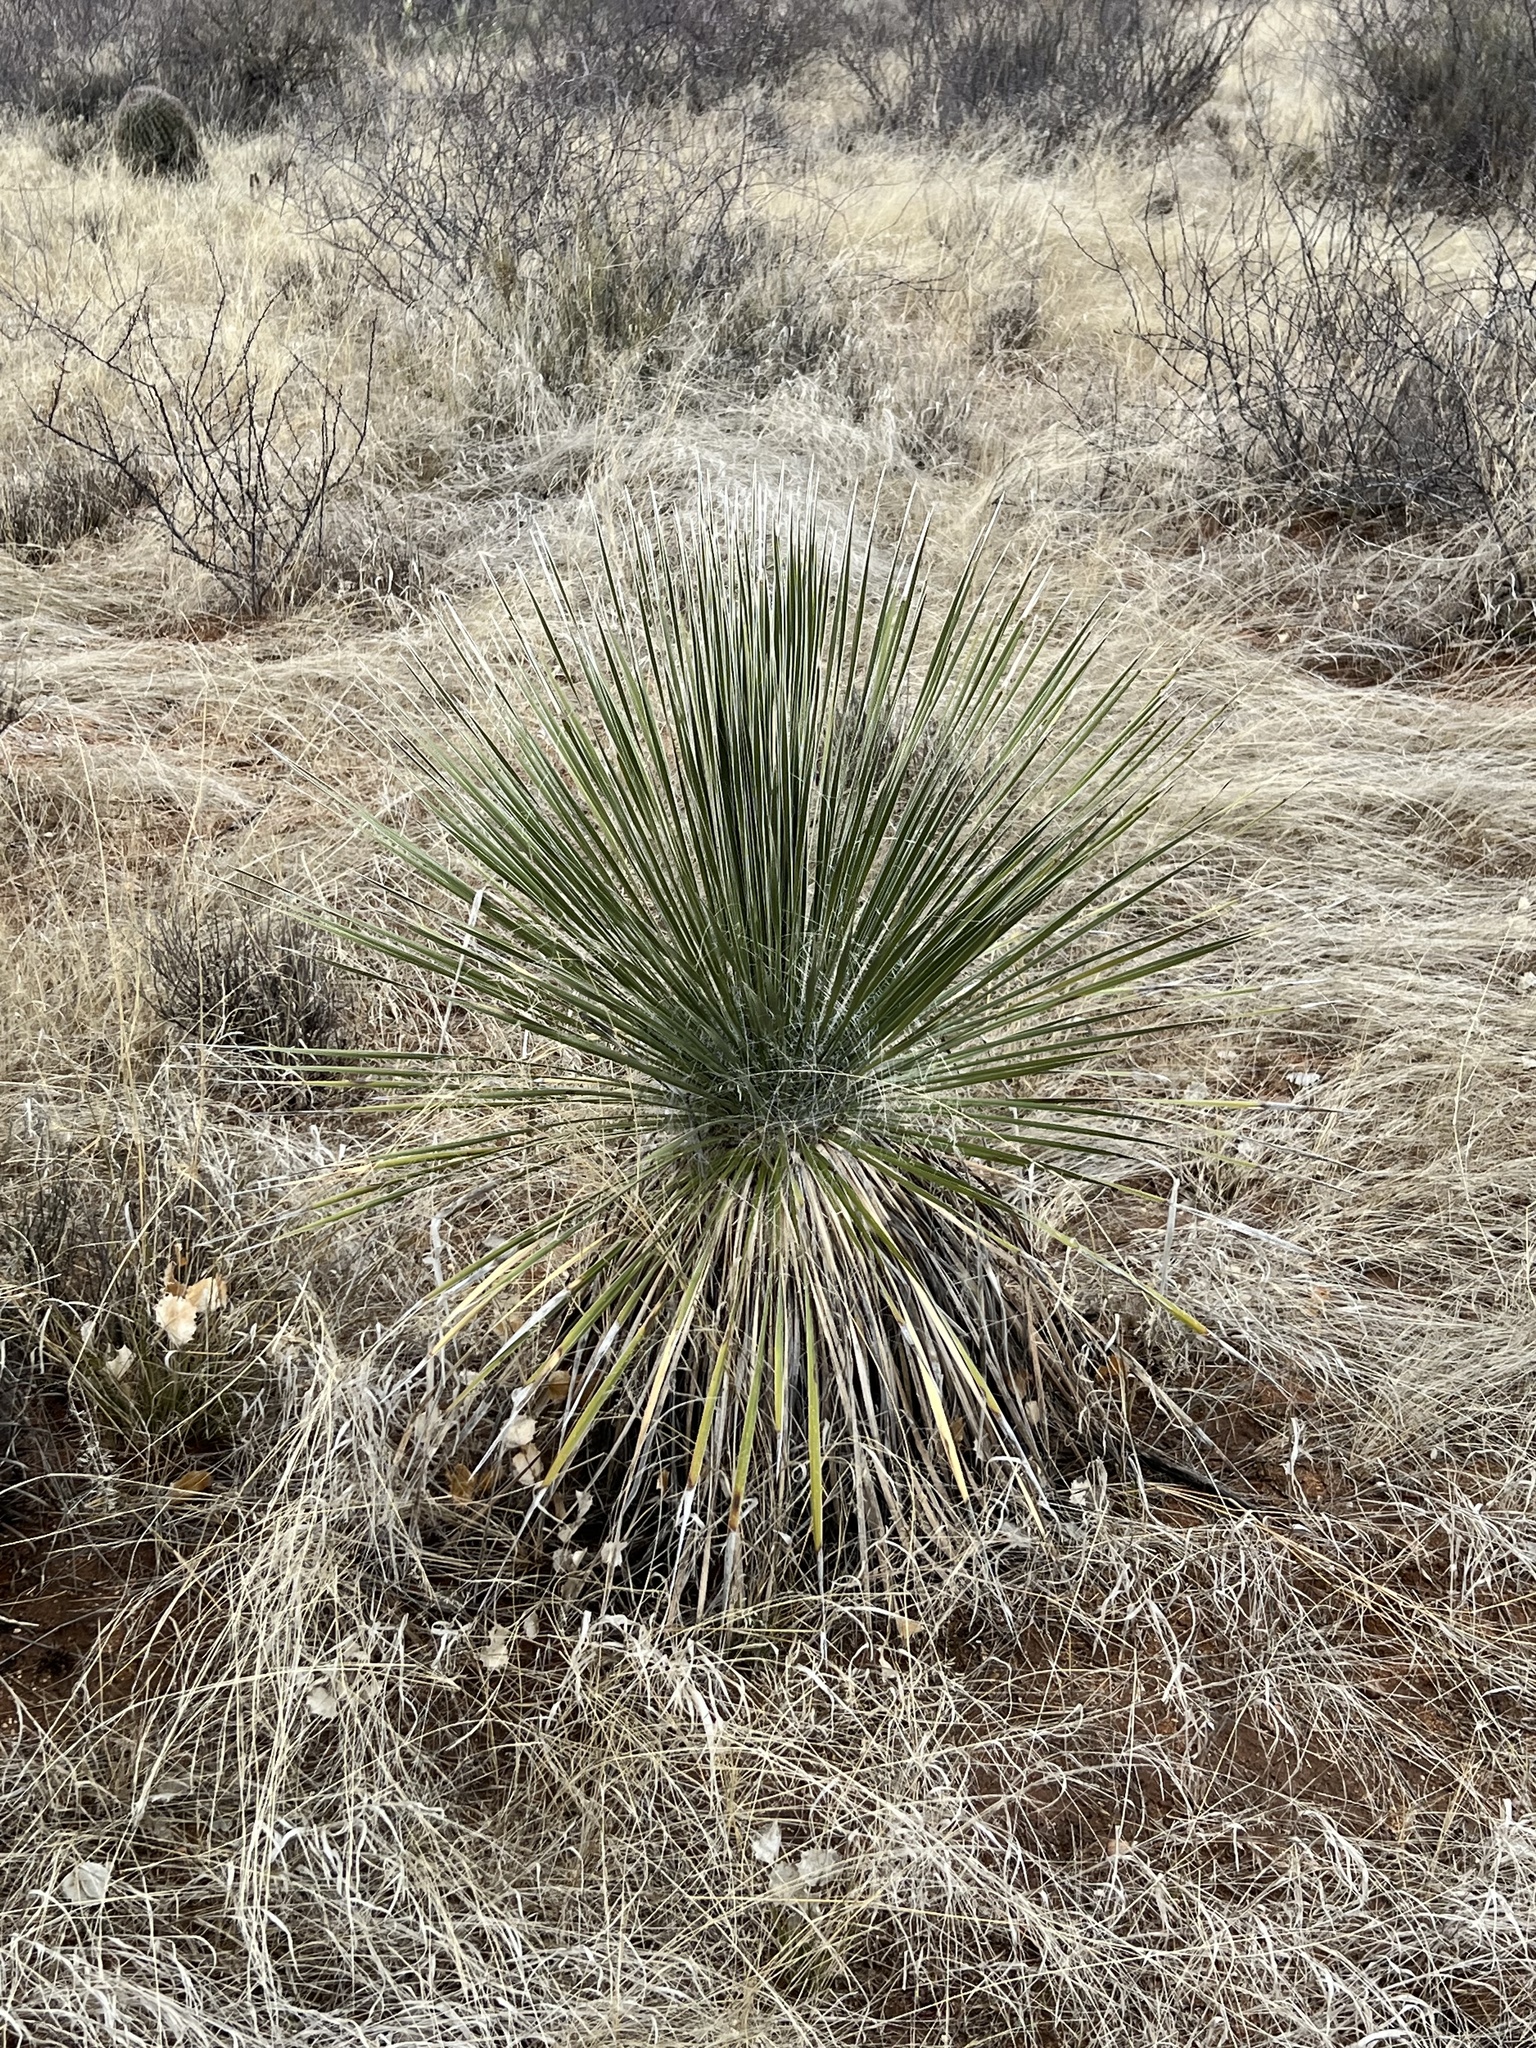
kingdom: Plantae
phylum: Tracheophyta
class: Liliopsida
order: Asparagales
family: Asparagaceae
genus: Yucca
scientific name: Yucca elata
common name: Palmella
